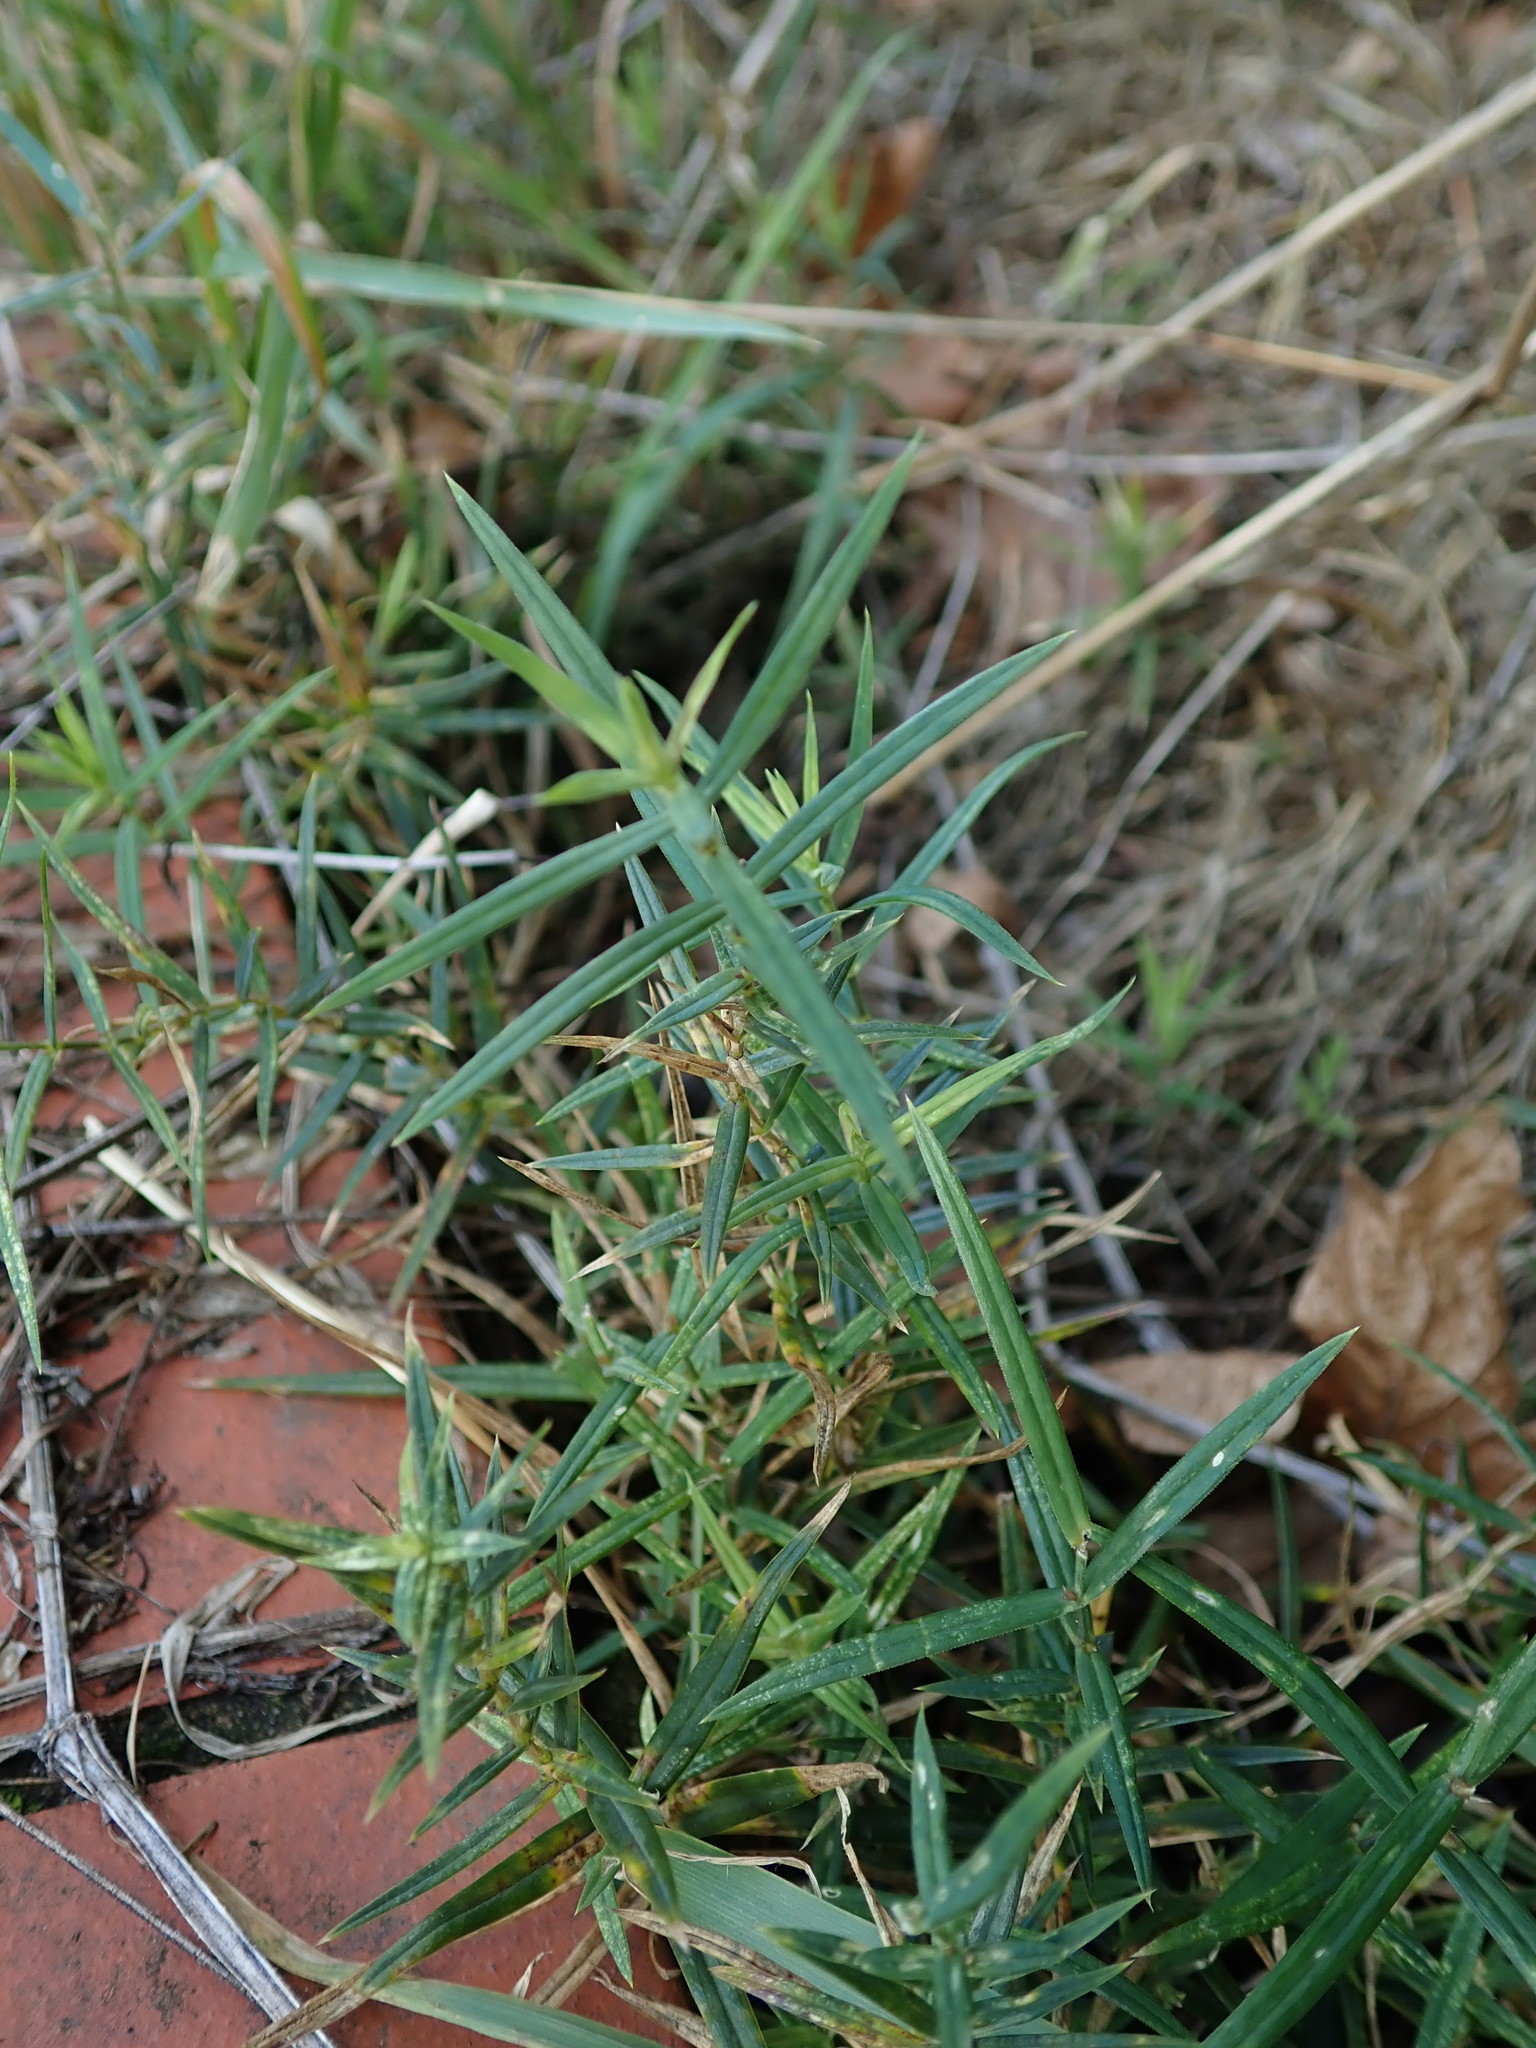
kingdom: Plantae
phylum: Tracheophyta
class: Magnoliopsida
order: Caryophyllales
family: Caryophyllaceae
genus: Rabelera
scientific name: Rabelera holostea
